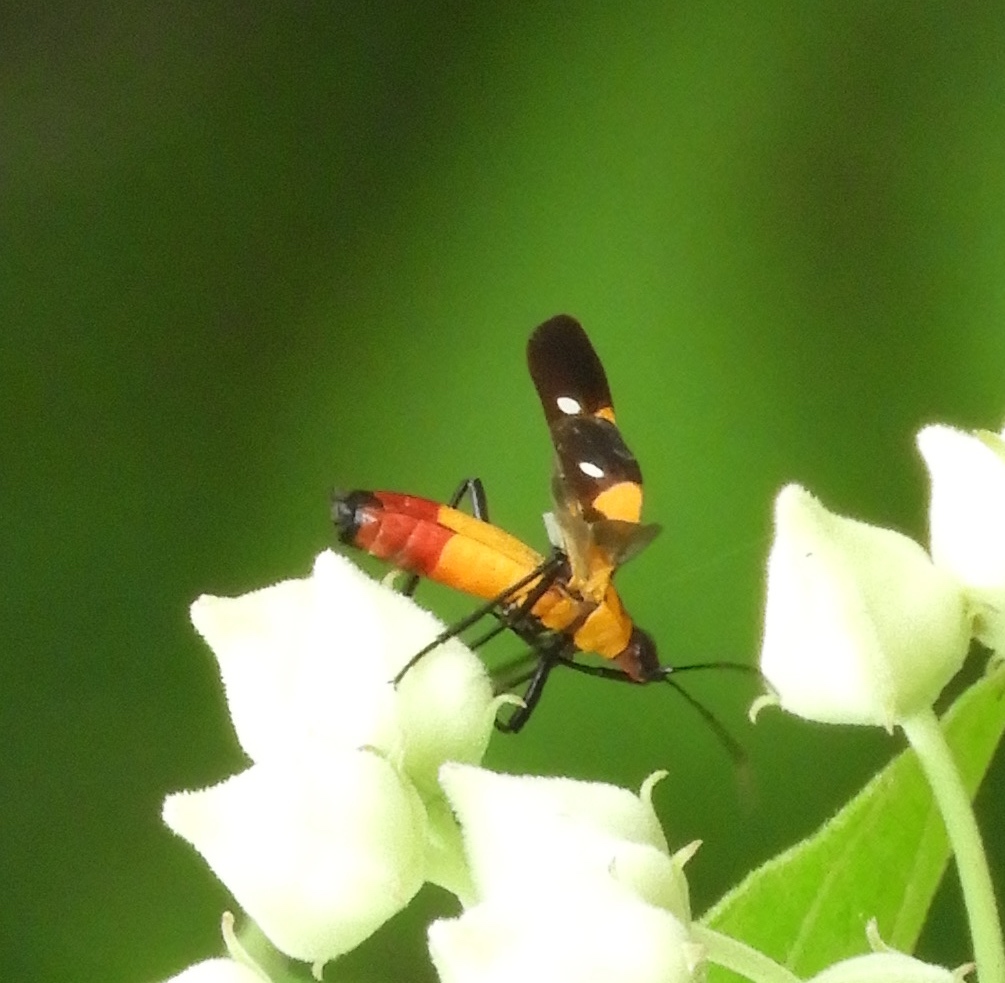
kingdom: Animalia
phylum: Arthropoda
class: Insecta
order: Hemiptera
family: Lygaeidae
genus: Oncopeltus
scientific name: Oncopeltus
